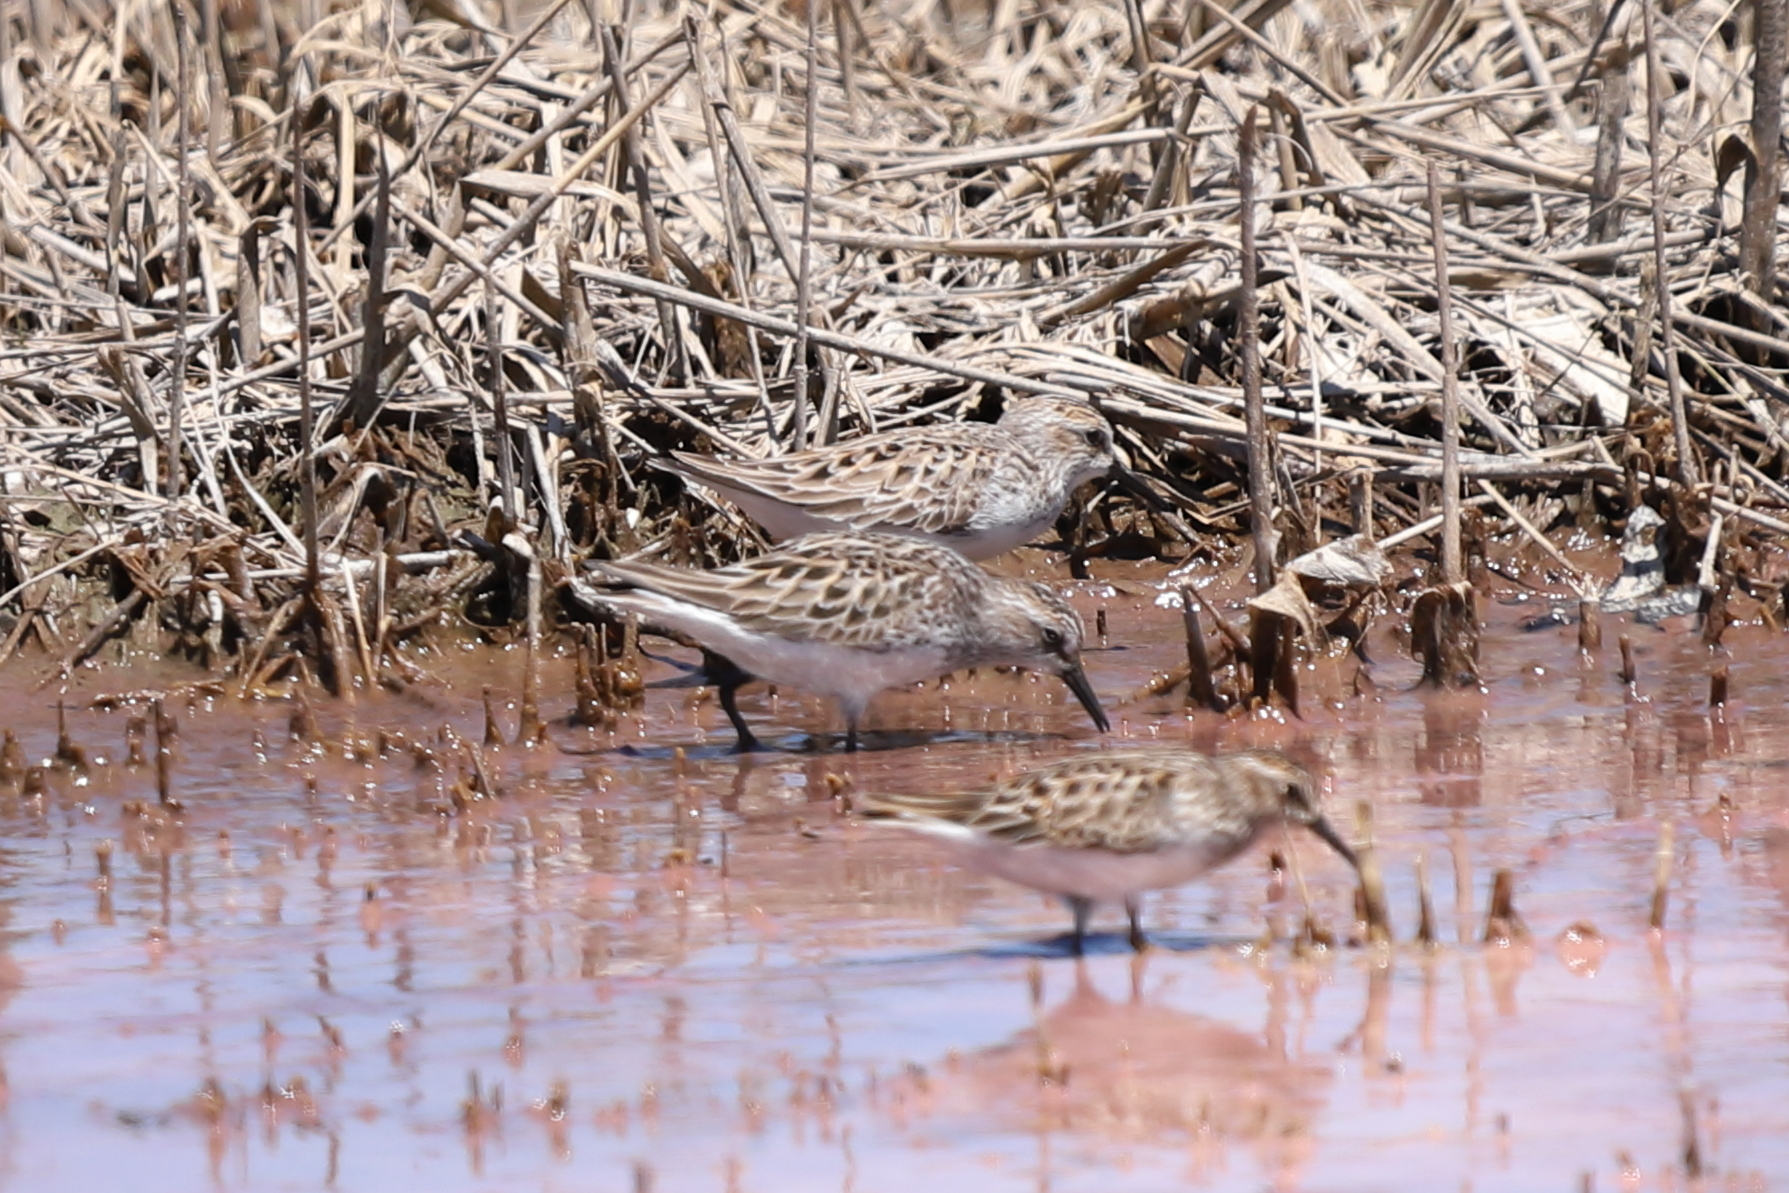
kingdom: Animalia
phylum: Chordata
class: Aves
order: Charadriiformes
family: Scolopacidae
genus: Calidris
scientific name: Calidris minutilla
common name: Least sandpiper
